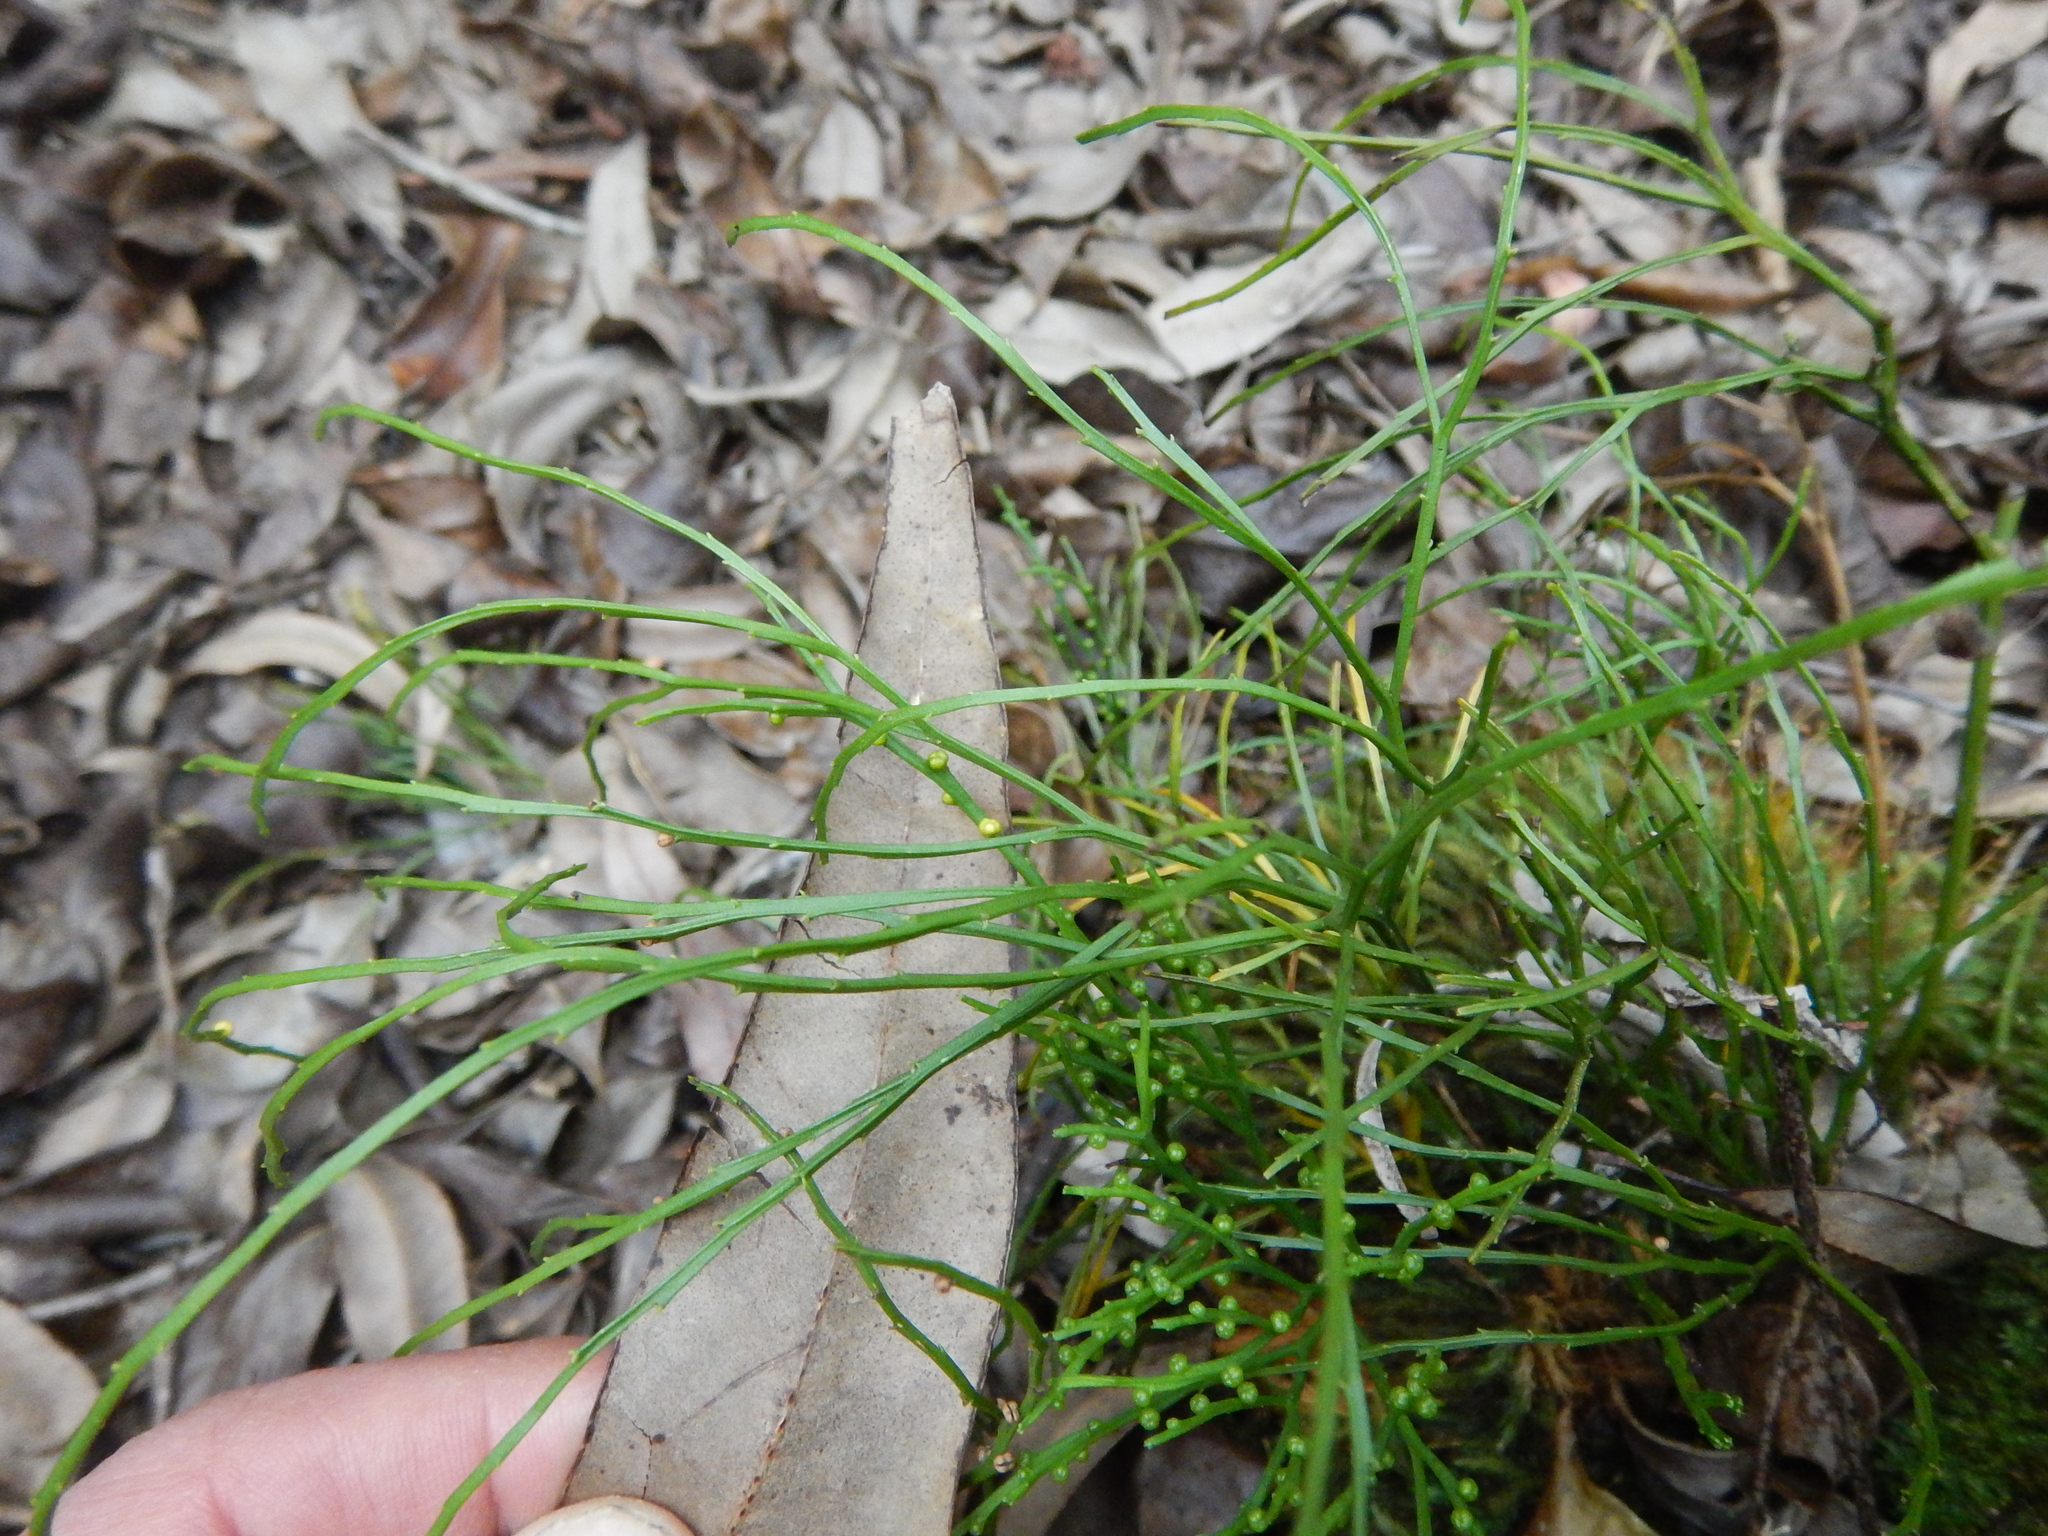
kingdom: Plantae
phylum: Tracheophyta
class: Polypodiopsida
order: Psilotales
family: Psilotaceae
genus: Psilotum
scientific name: Psilotum nudum
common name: Skeleton fork fern
